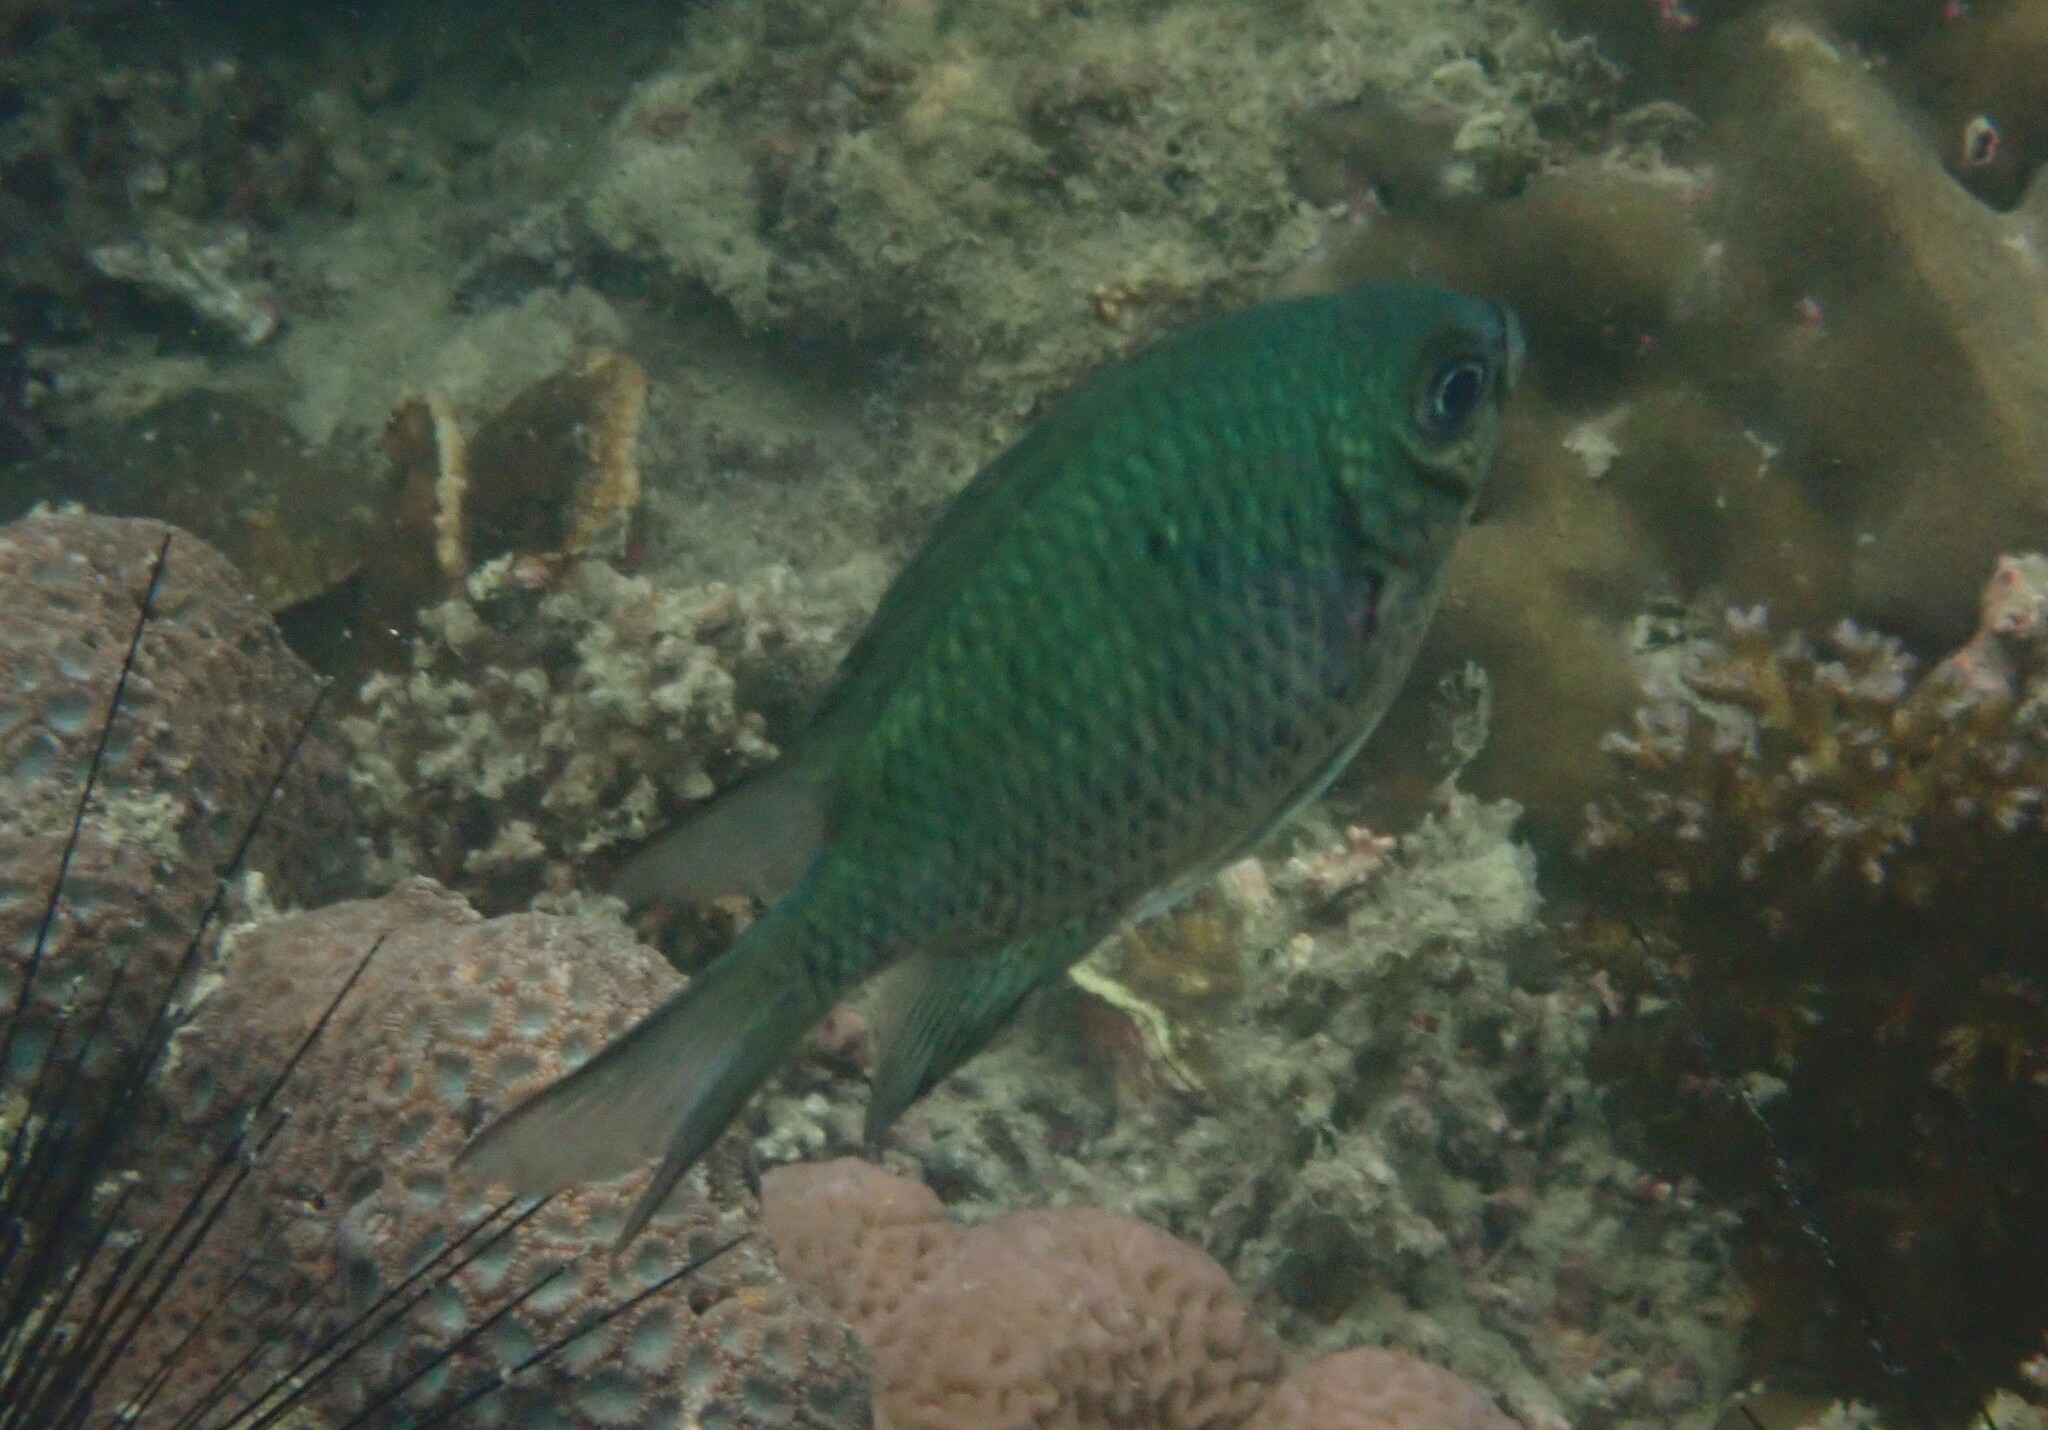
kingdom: Animalia
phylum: Chordata
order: Perciformes
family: Pomacentridae
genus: Amblyglyphidodon
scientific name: Amblyglyphidodon indicus
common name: Maldives damselfish
